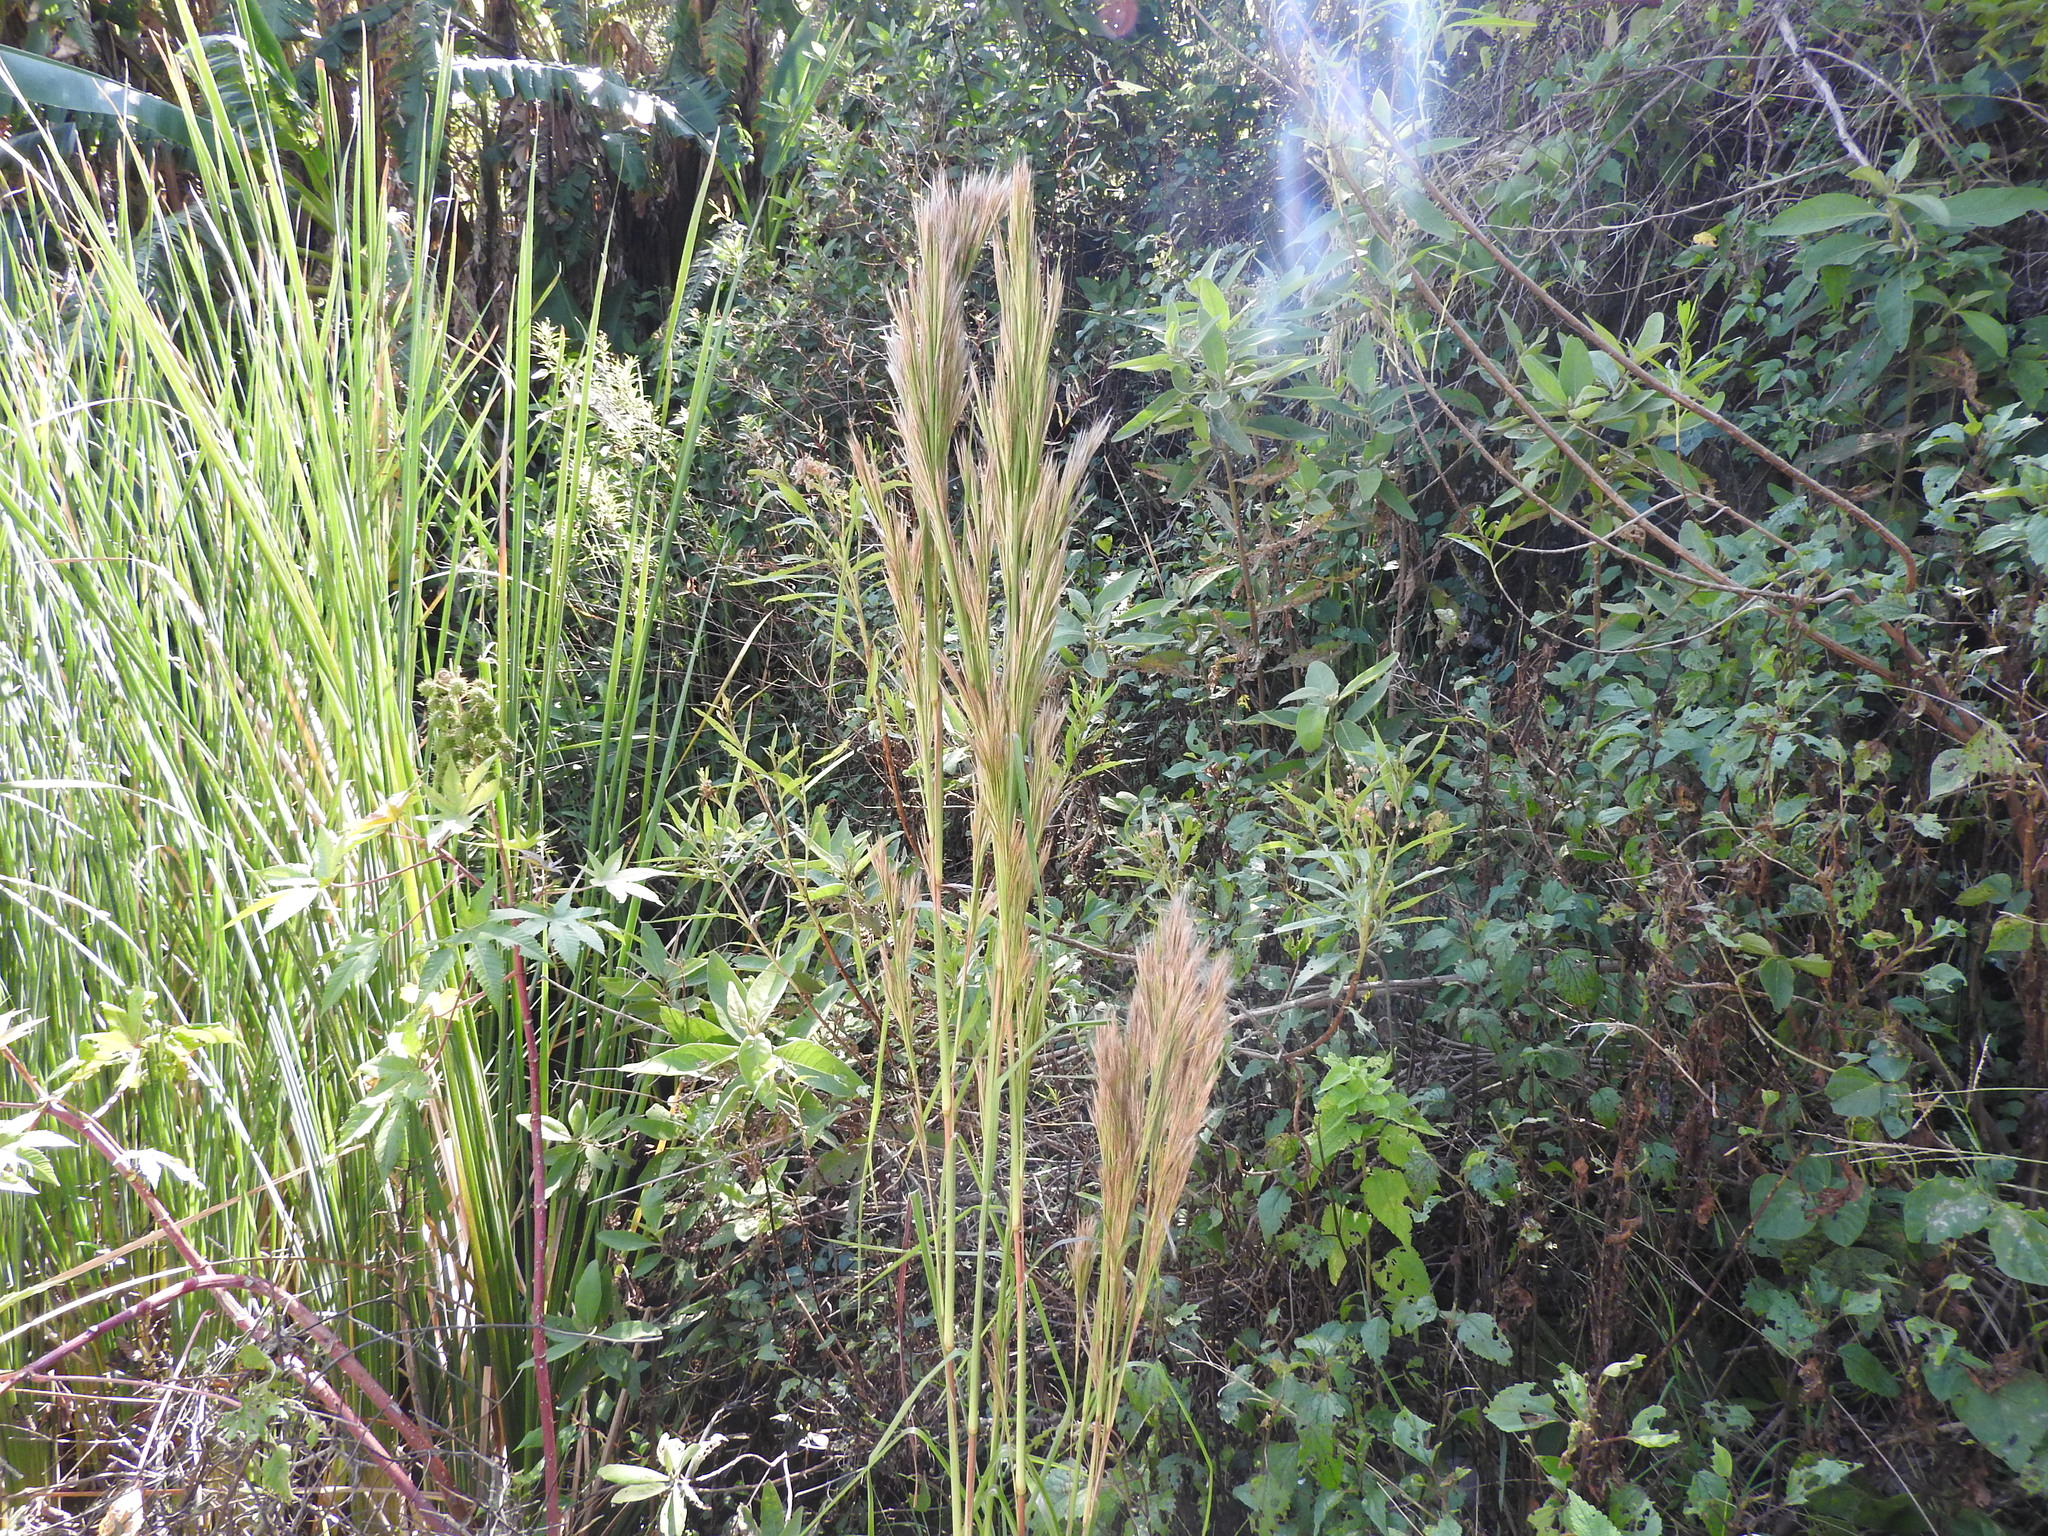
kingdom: Plantae
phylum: Tracheophyta
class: Liliopsida
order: Poales
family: Poaceae
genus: Andropogon
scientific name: Andropogon bicornis
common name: West indian foxtail grass
